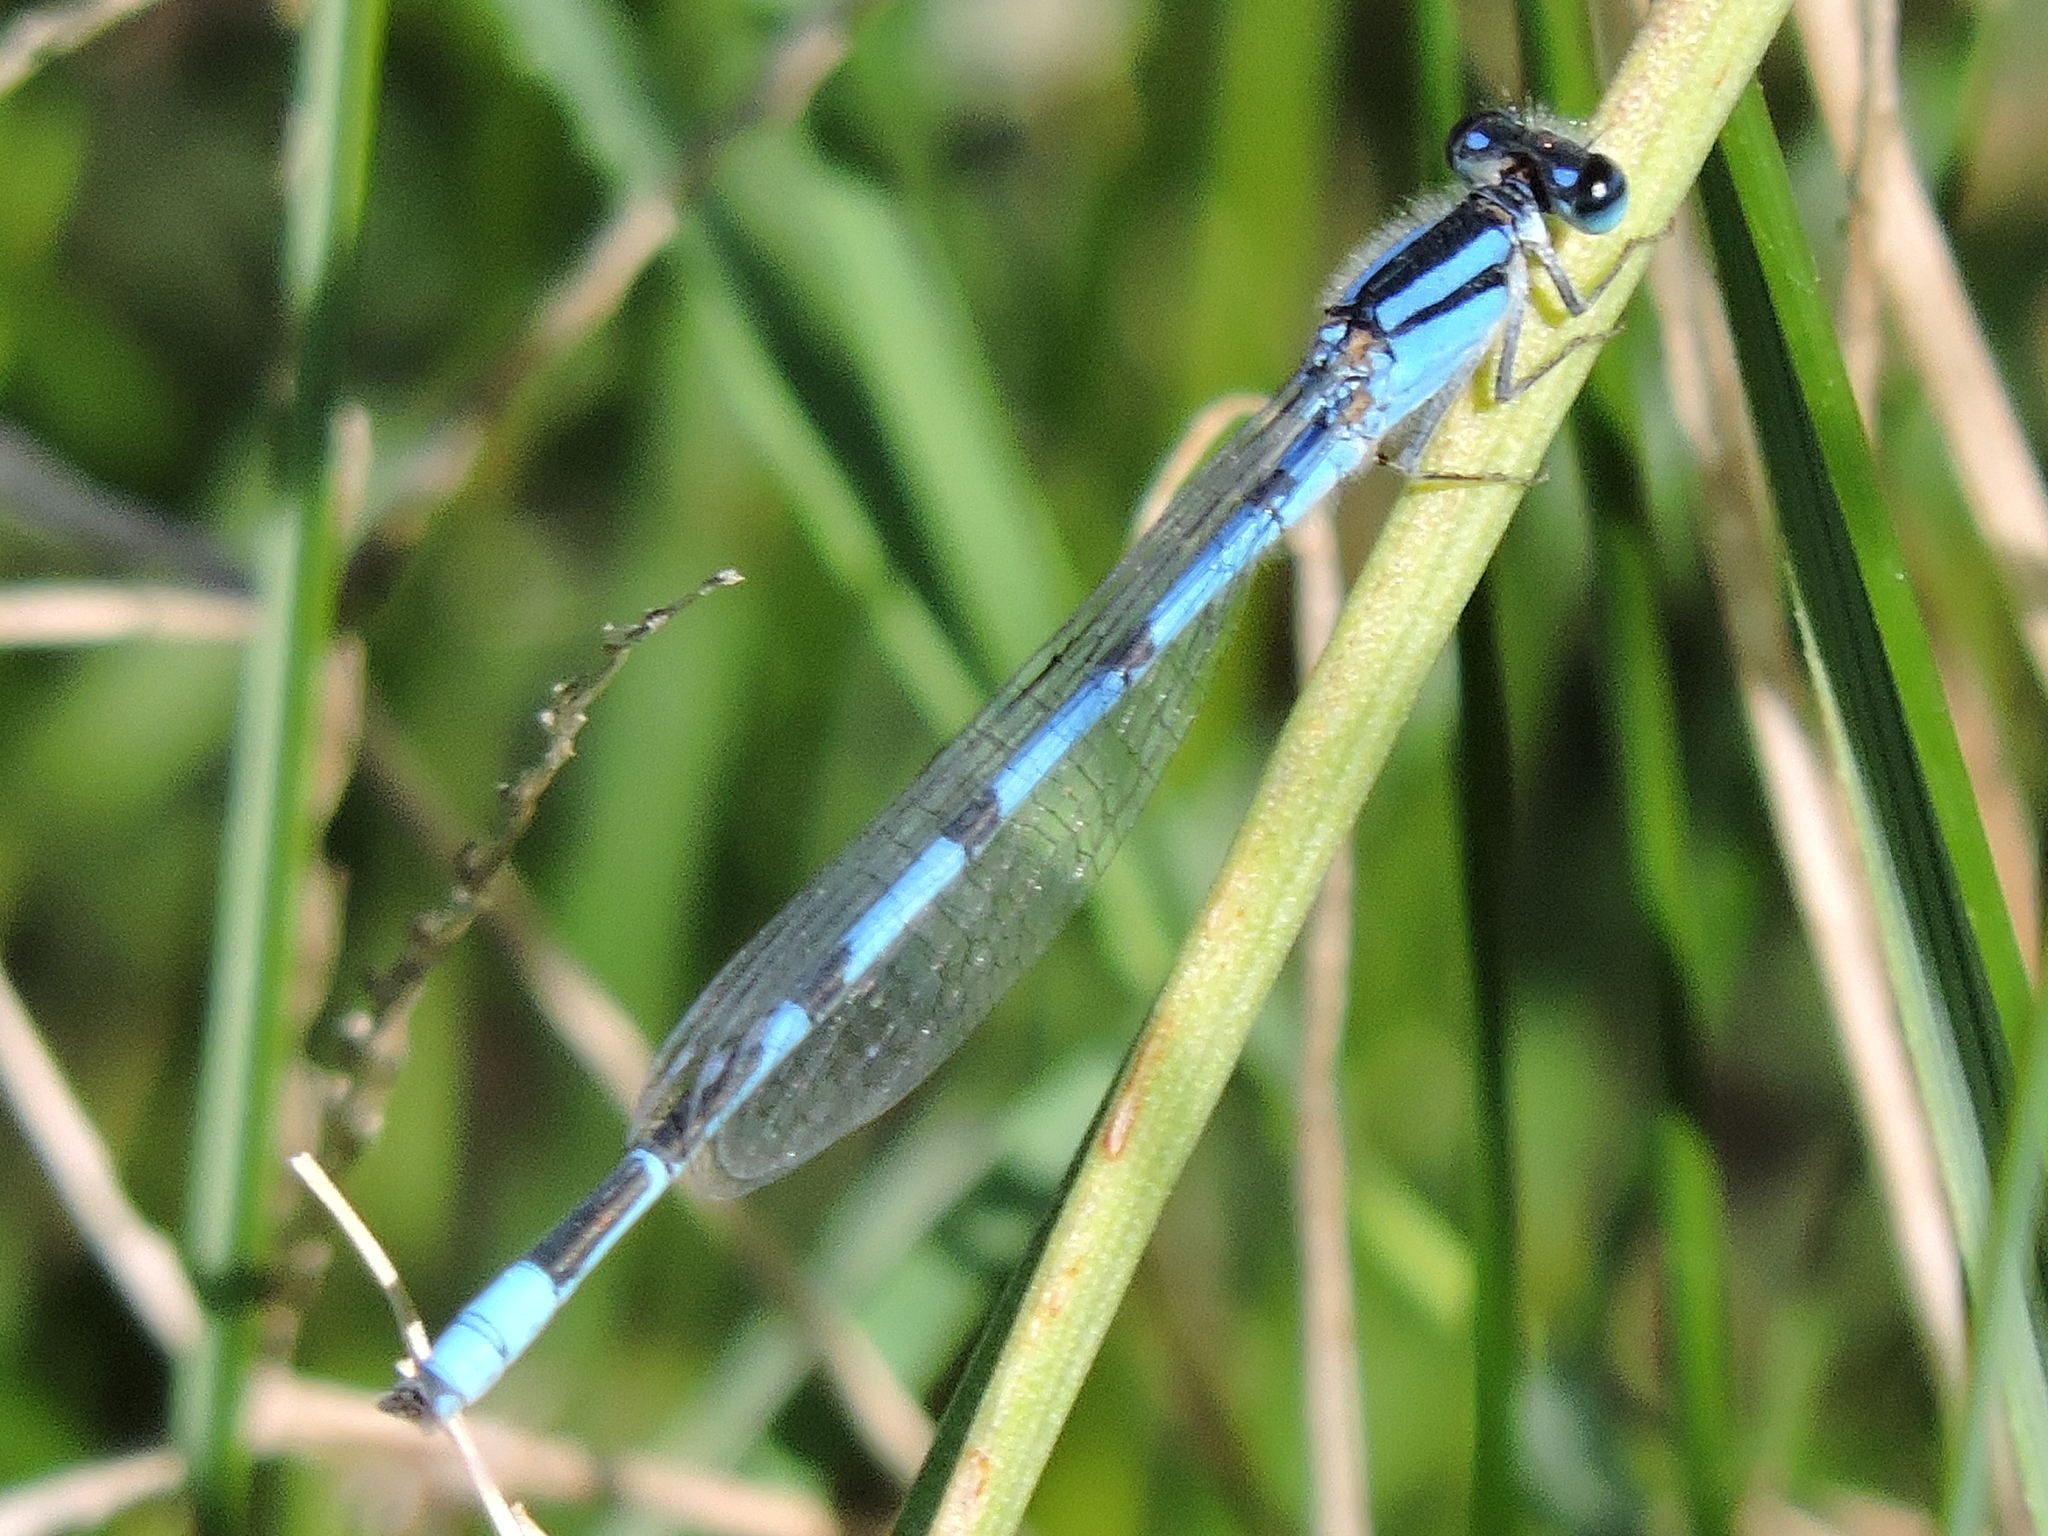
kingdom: Animalia
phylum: Arthropoda
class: Insecta
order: Odonata
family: Coenagrionidae
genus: Enallagma
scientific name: Enallagma civile
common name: Damselfly
